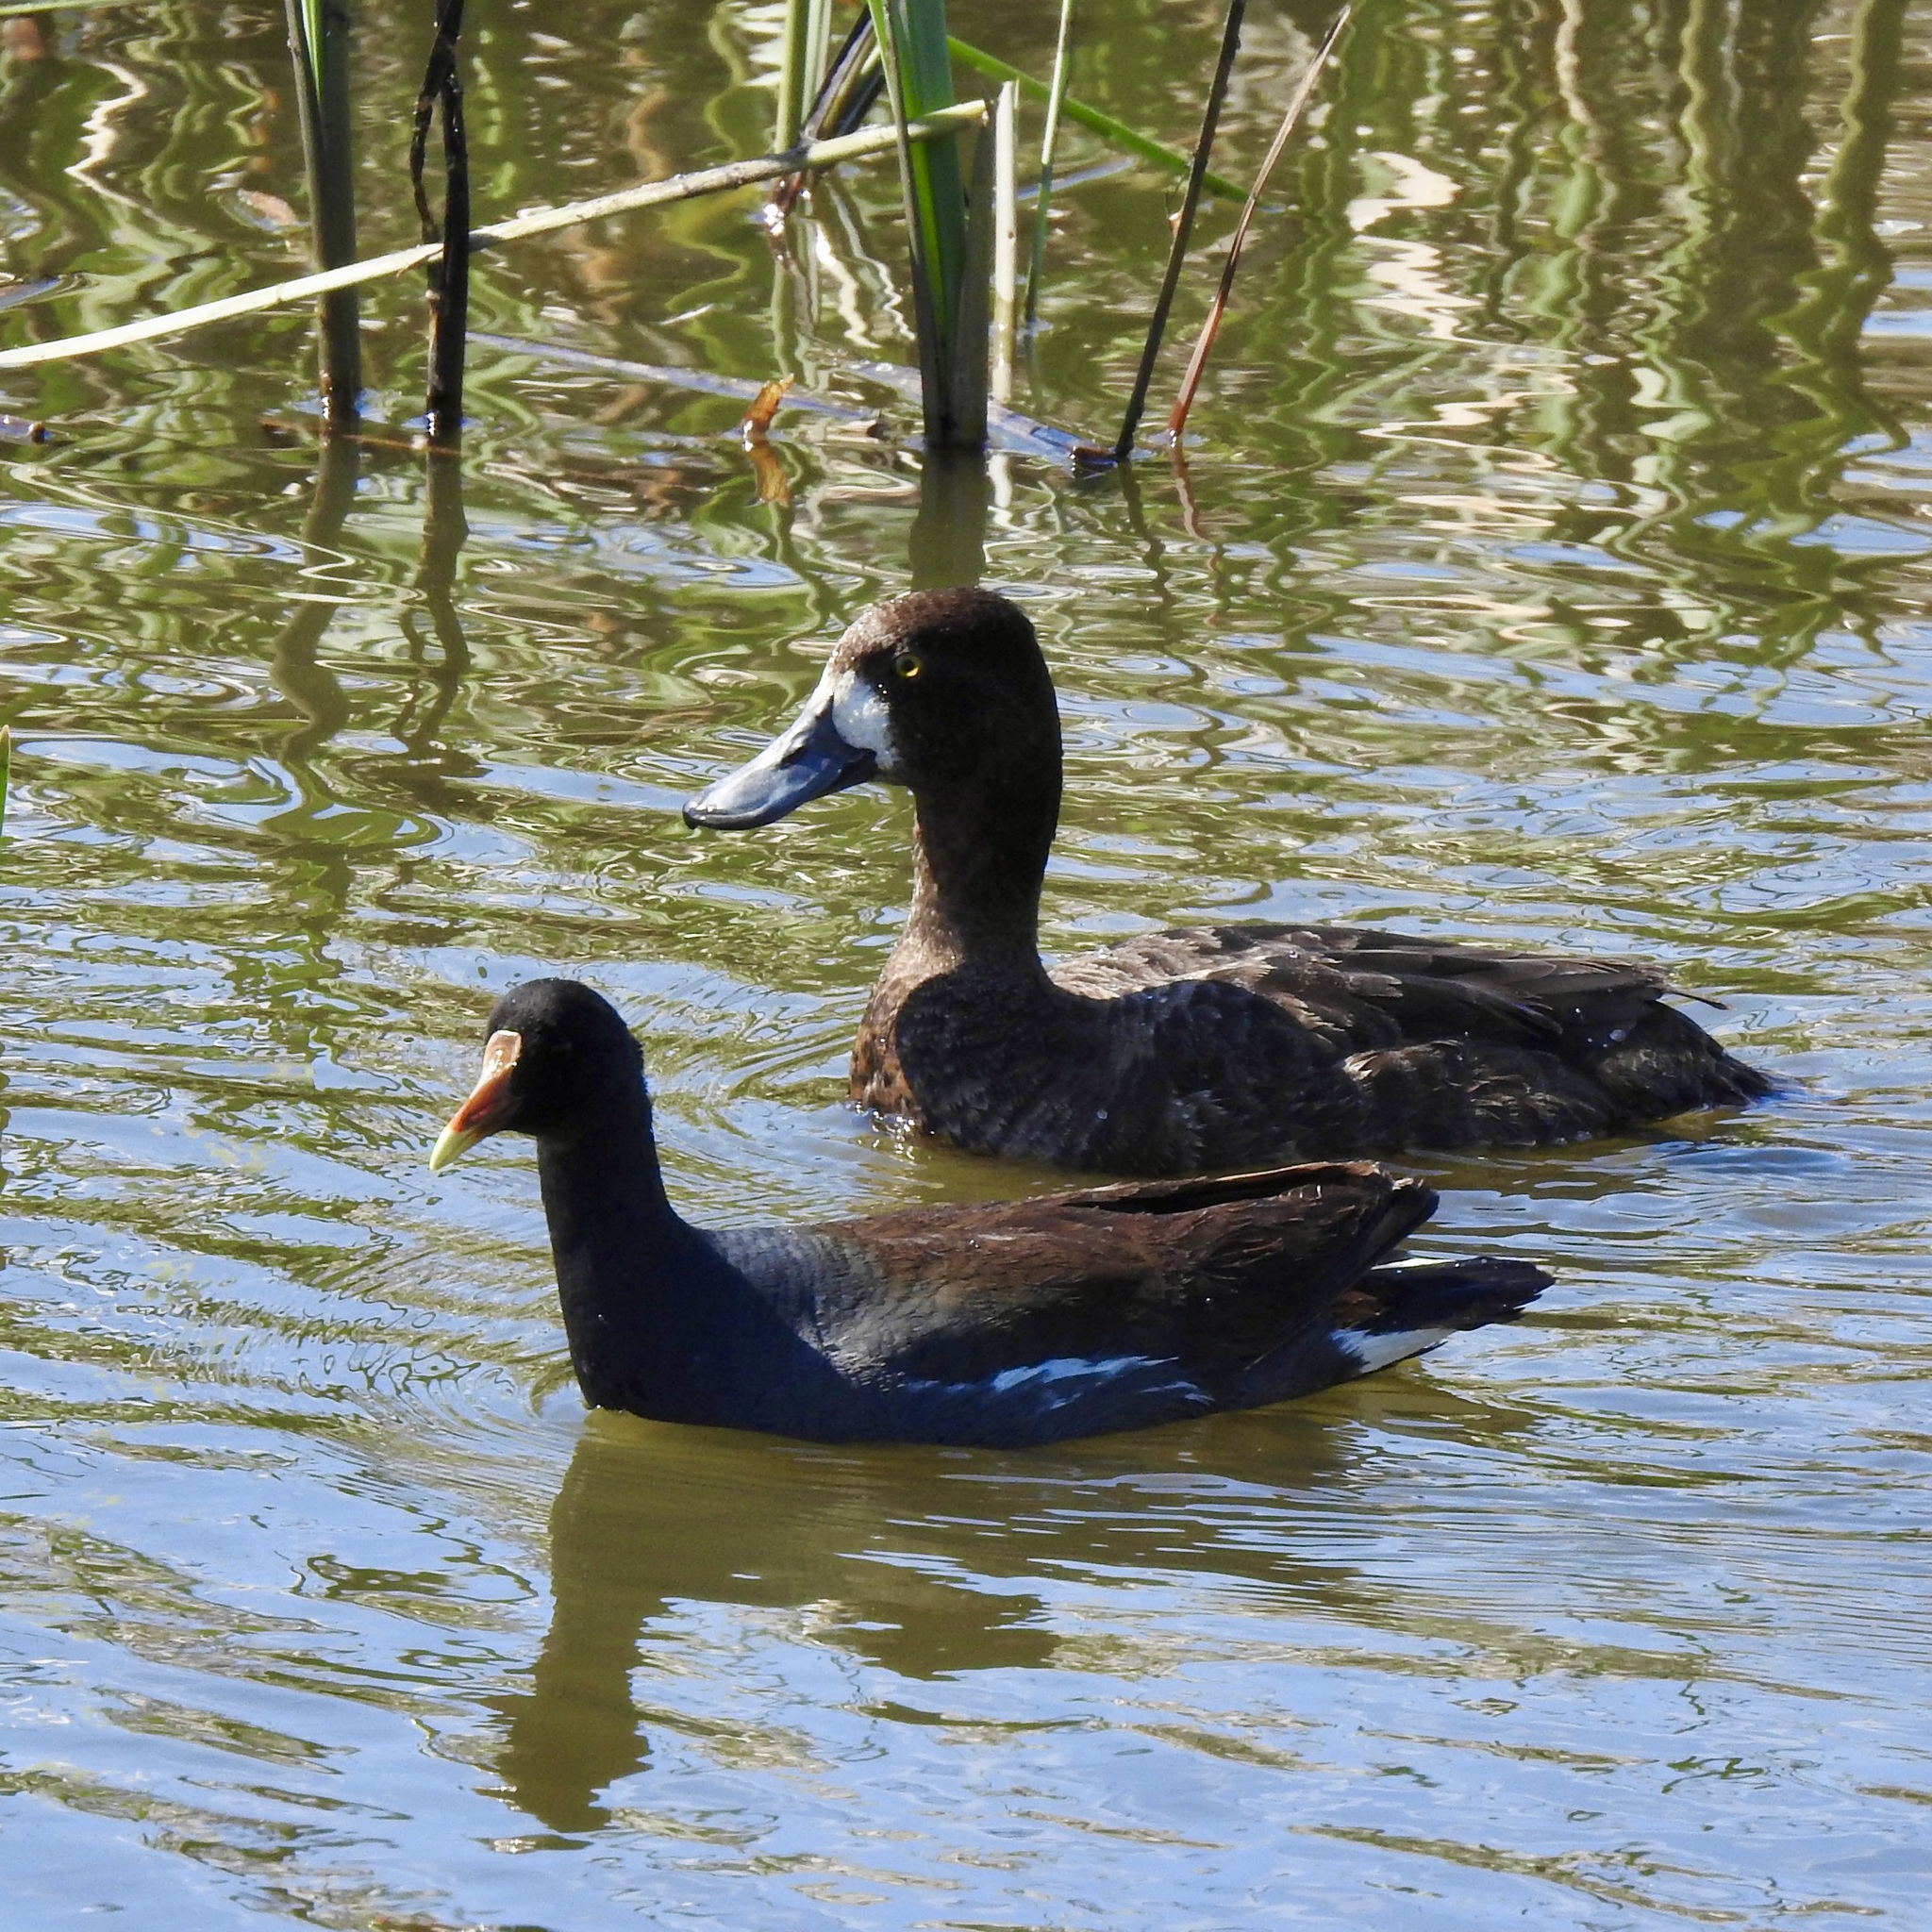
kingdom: Animalia
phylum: Chordata
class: Aves
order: Anseriformes
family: Anatidae
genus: Aythya
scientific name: Aythya marila
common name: Greater scaup
